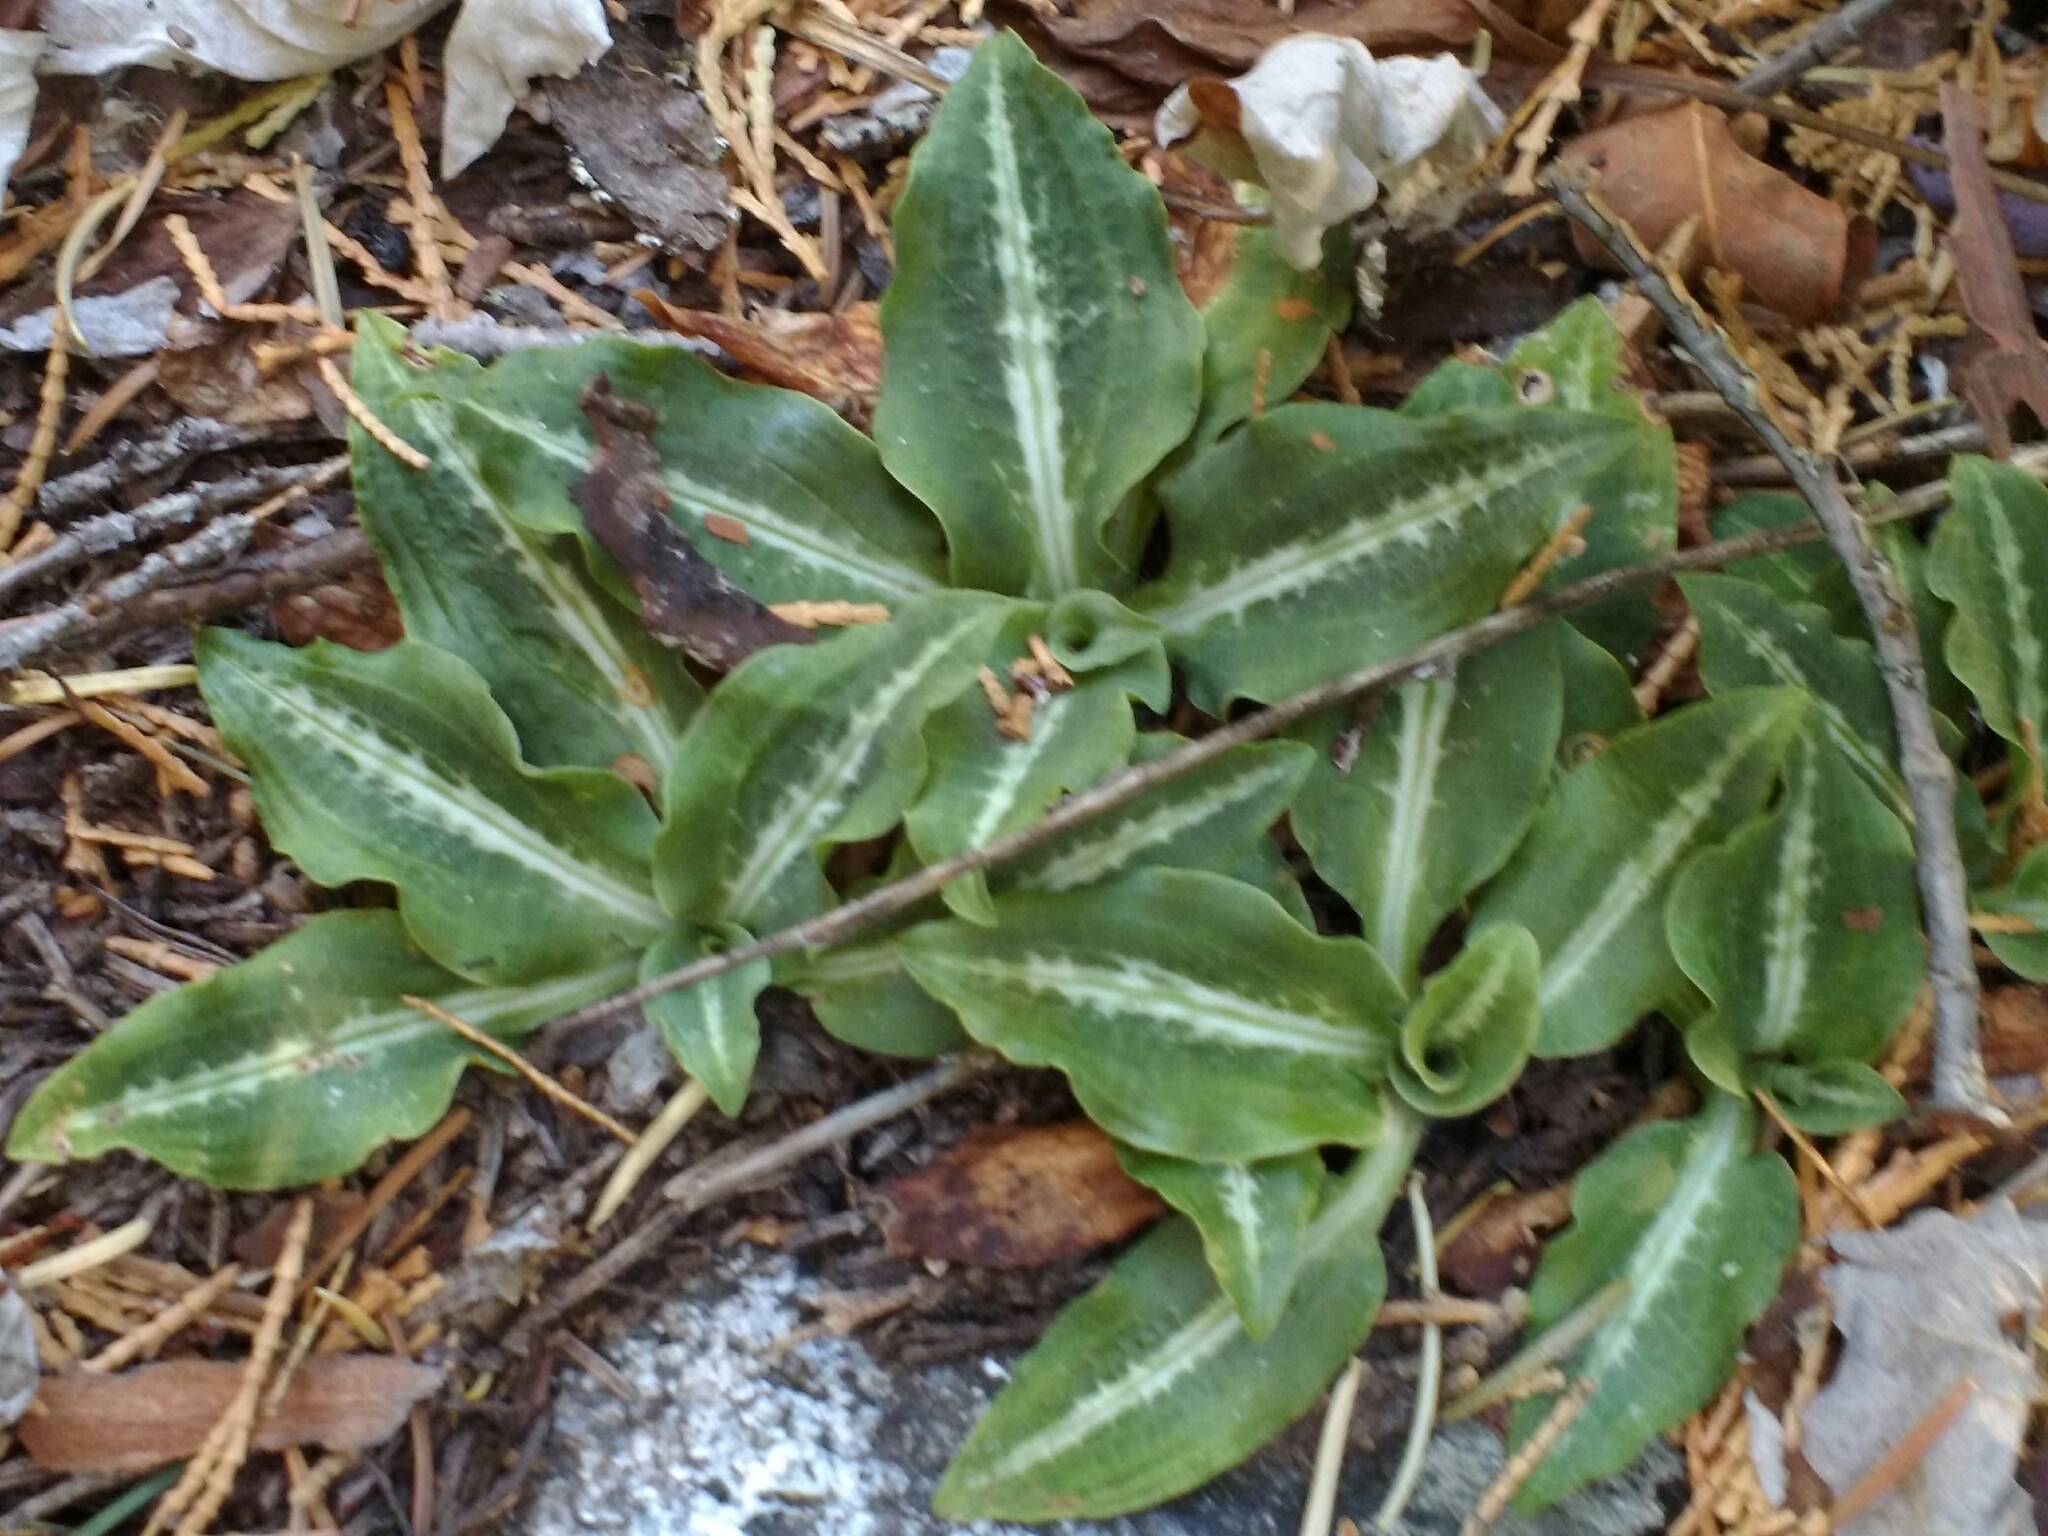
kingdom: Plantae
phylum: Tracheophyta
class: Liliopsida
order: Asparagales
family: Orchidaceae
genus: Goodyera
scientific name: Goodyera oblongifolia
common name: Giant rattlesnake-plantain
